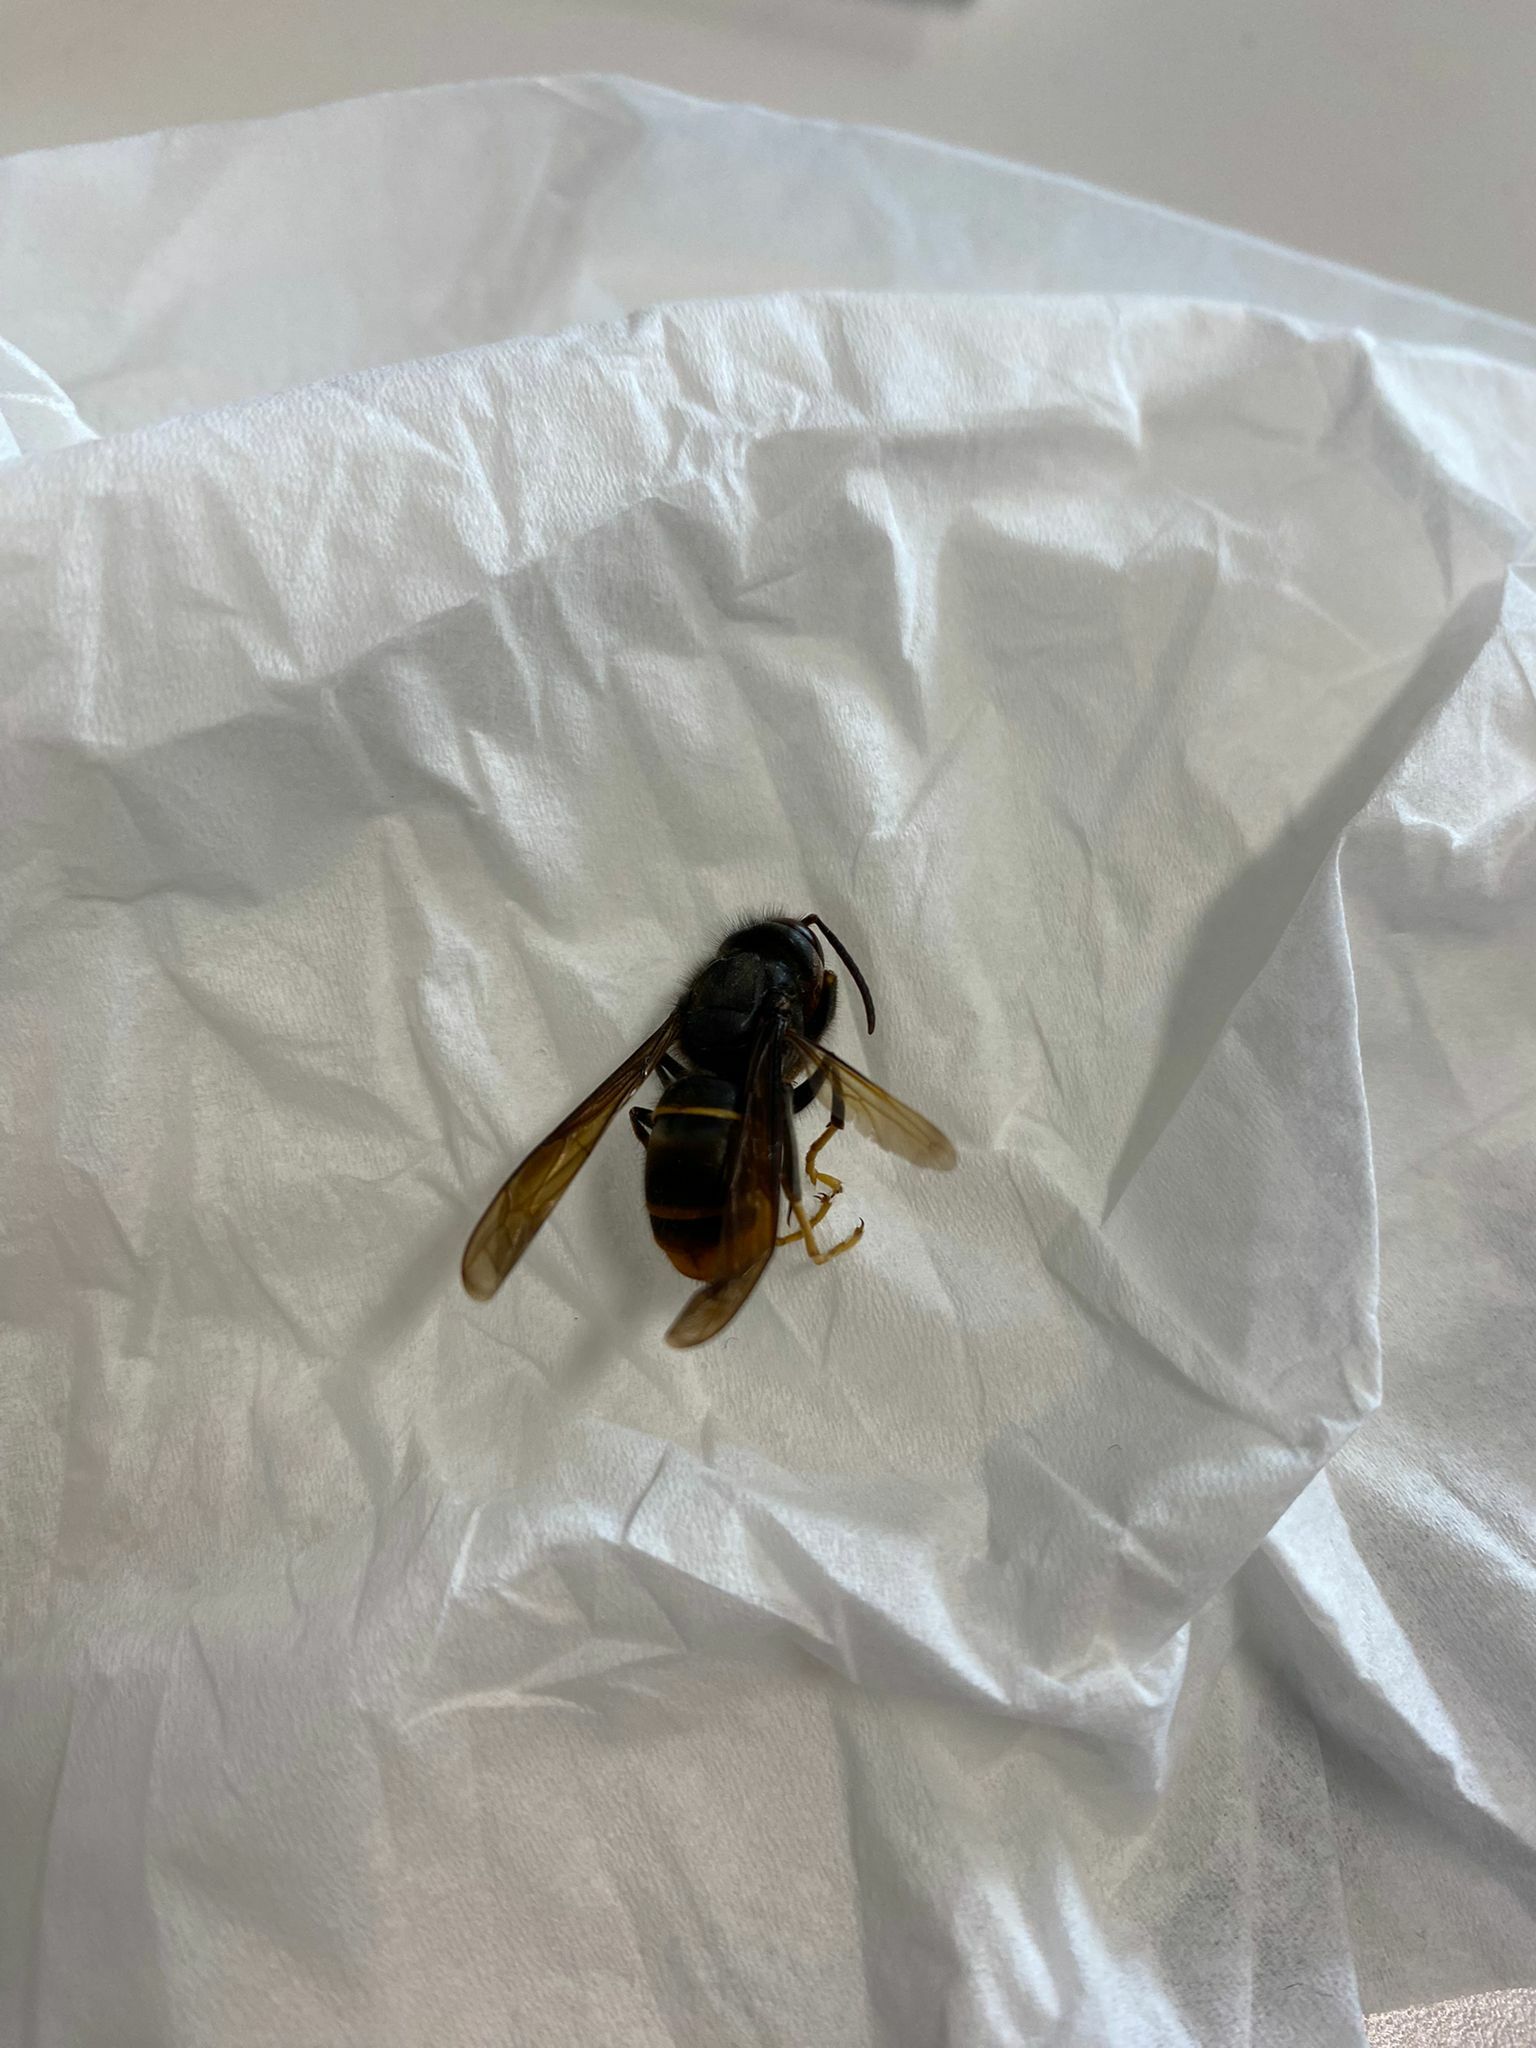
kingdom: Animalia
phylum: Arthropoda
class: Insecta
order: Hymenoptera
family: Vespidae
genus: Vespa
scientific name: Vespa velutina
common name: Asian hornet
